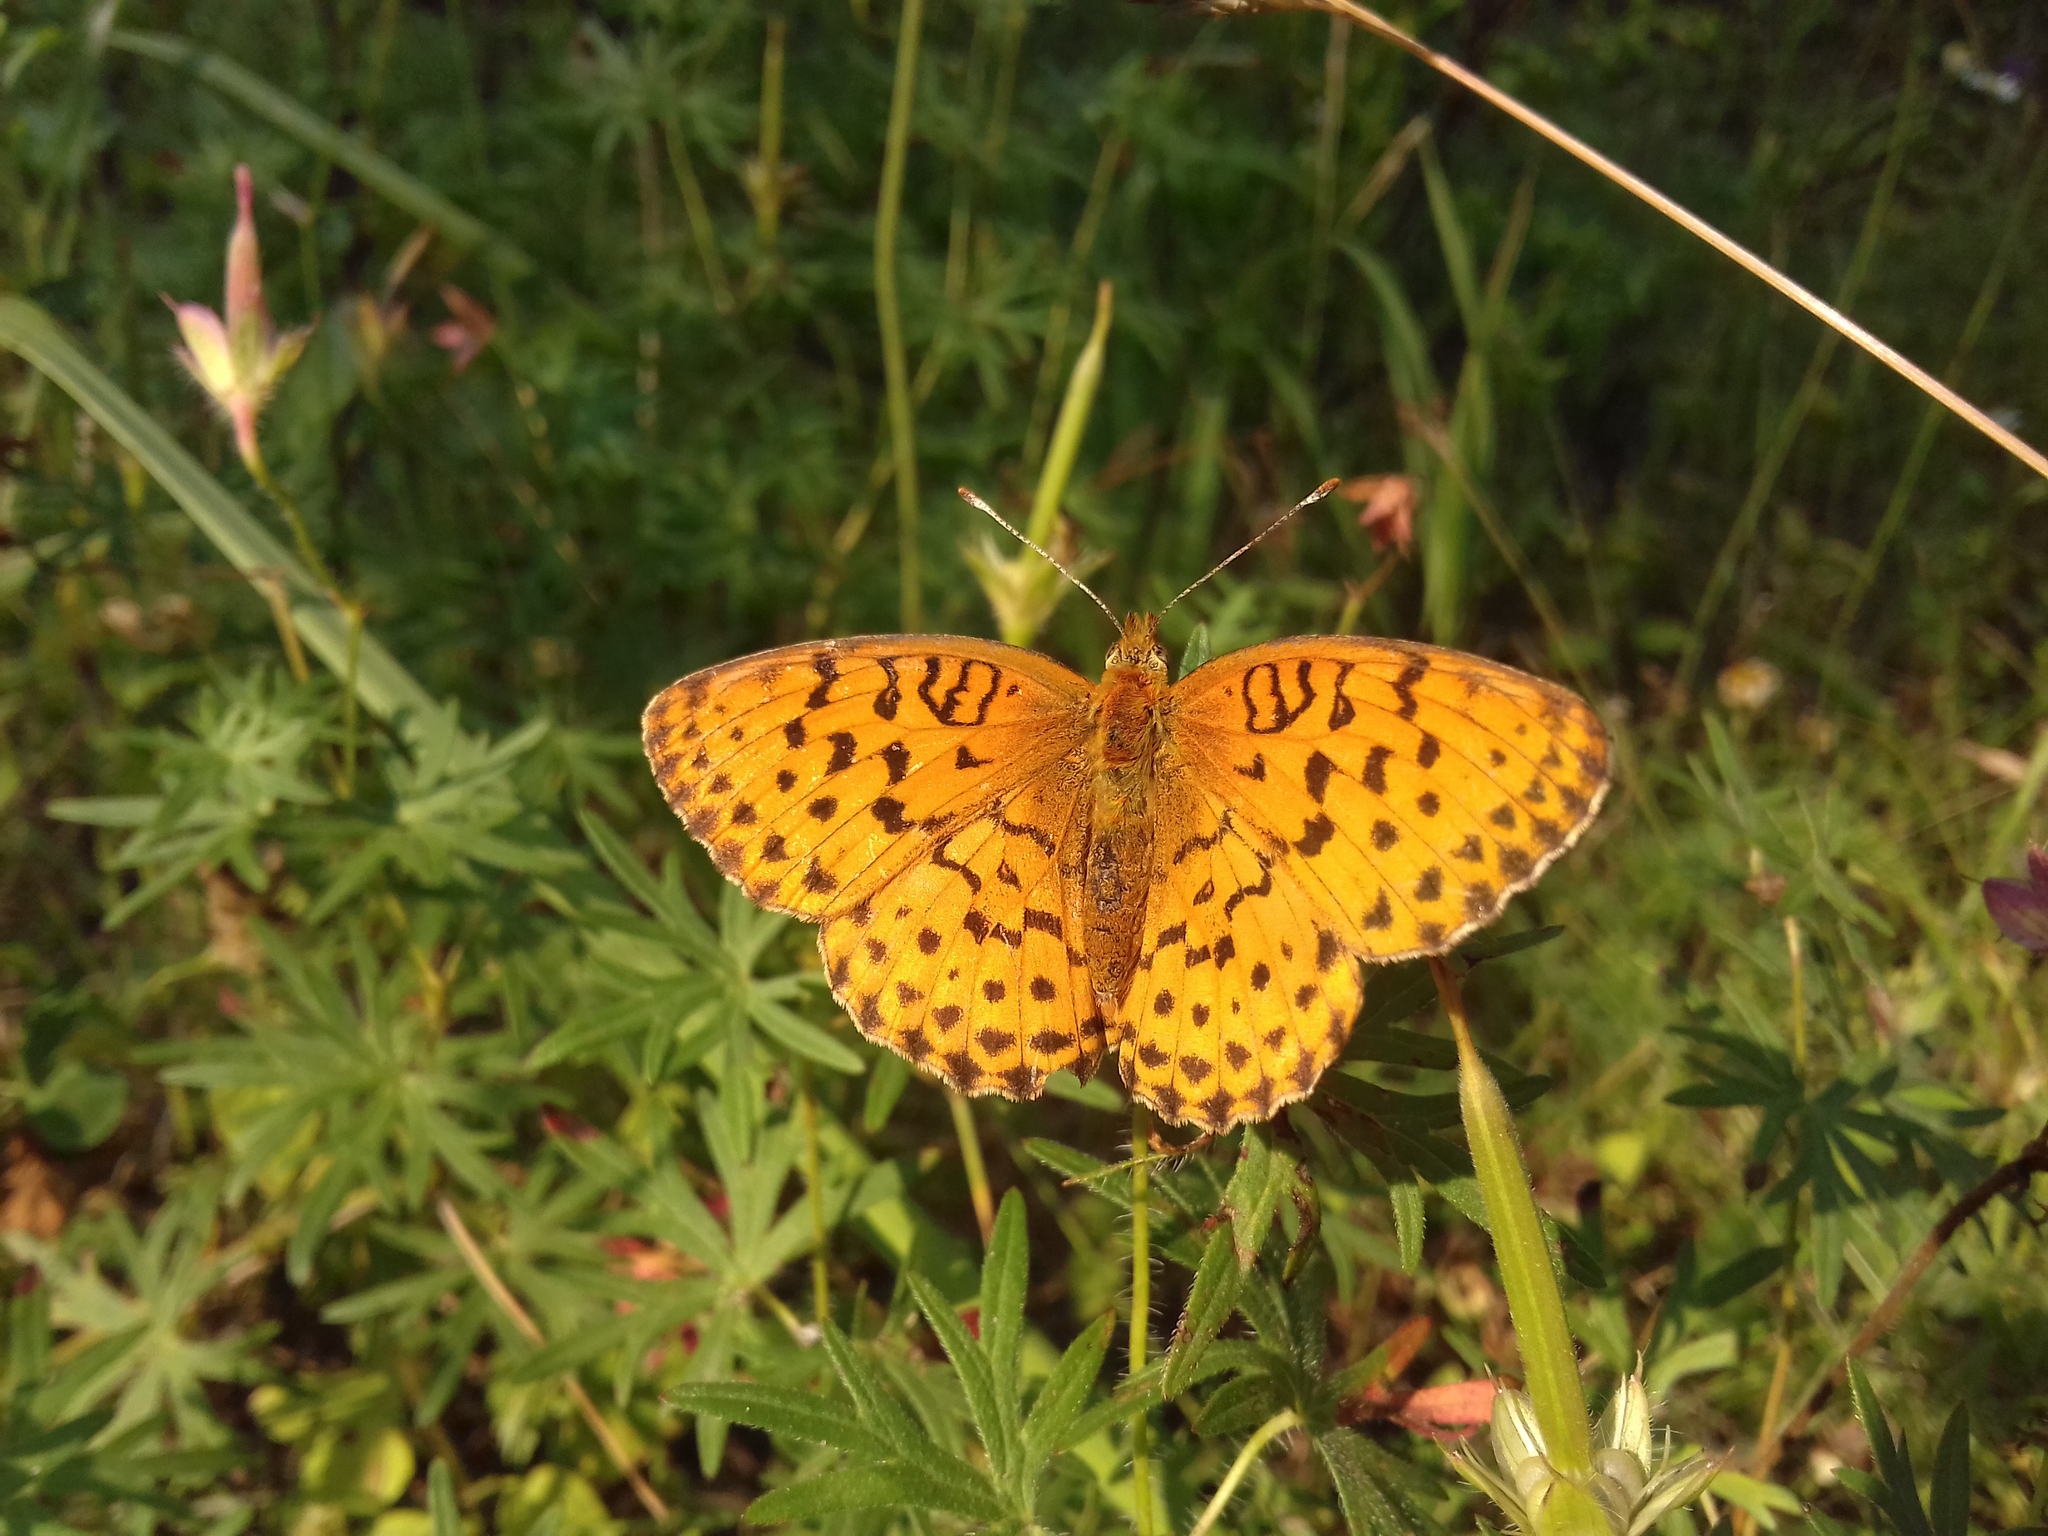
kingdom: Animalia
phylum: Arthropoda
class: Insecta
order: Lepidoptera
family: Nymphalidae
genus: Brenthis
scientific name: Brenthis daphne
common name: Marbled fritillary
